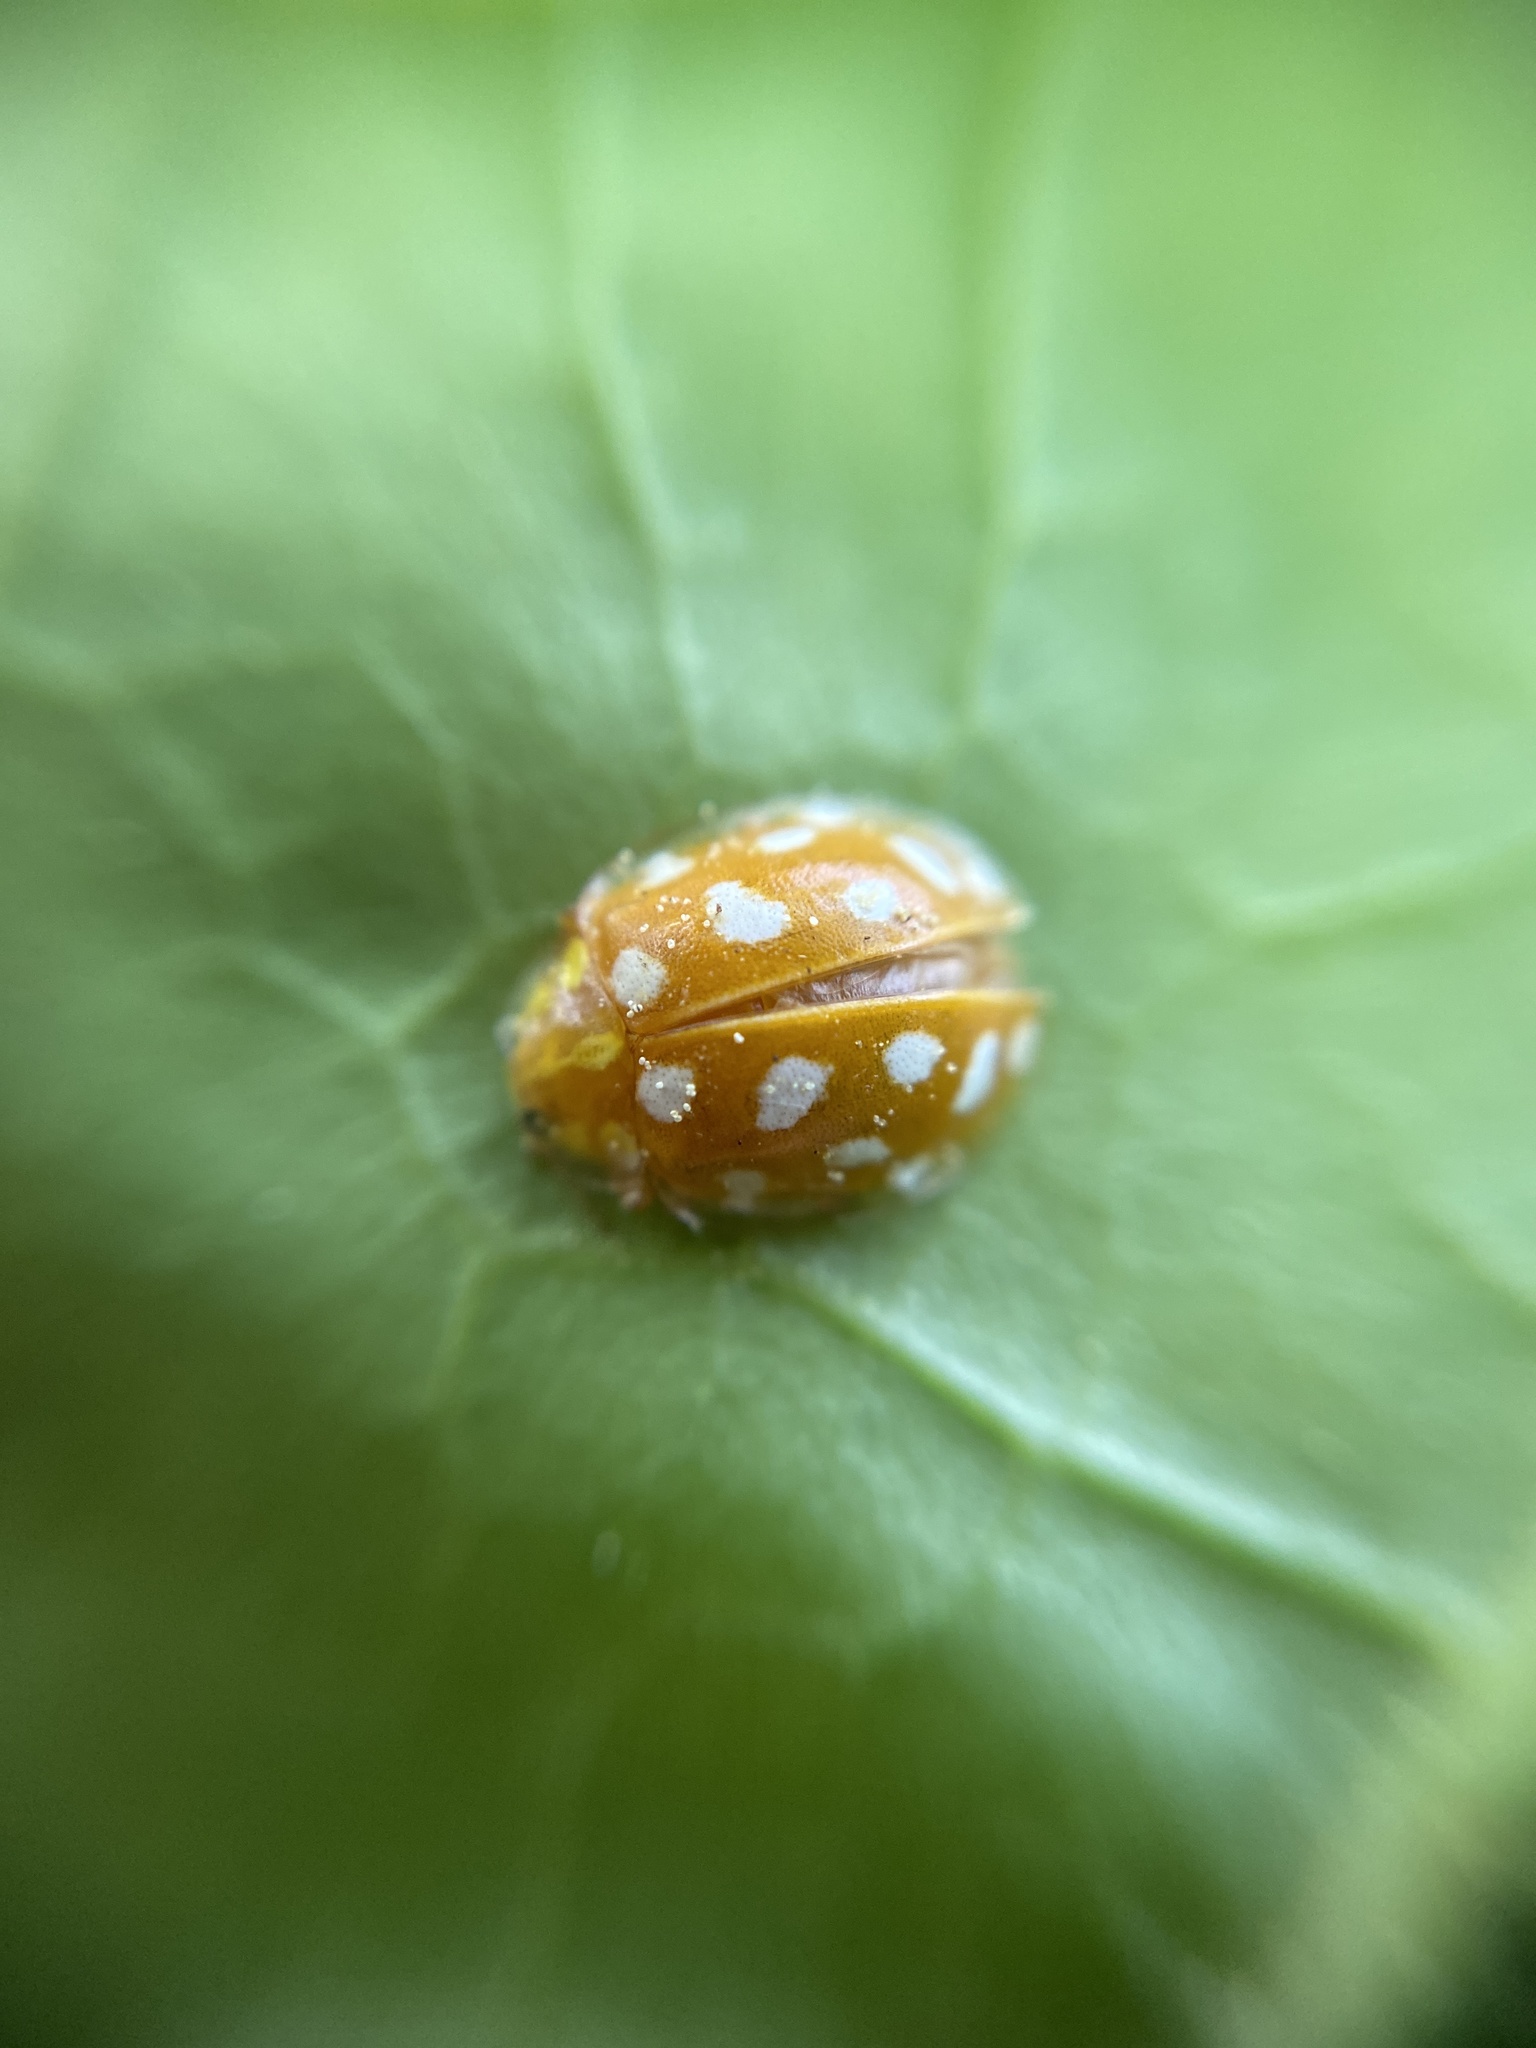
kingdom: Animalia
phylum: Arthropoda
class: Insecta
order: Coleoptera
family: Coccinellidae
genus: Halyzia
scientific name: Halyzia sedecimguttata
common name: Orange ladybird
